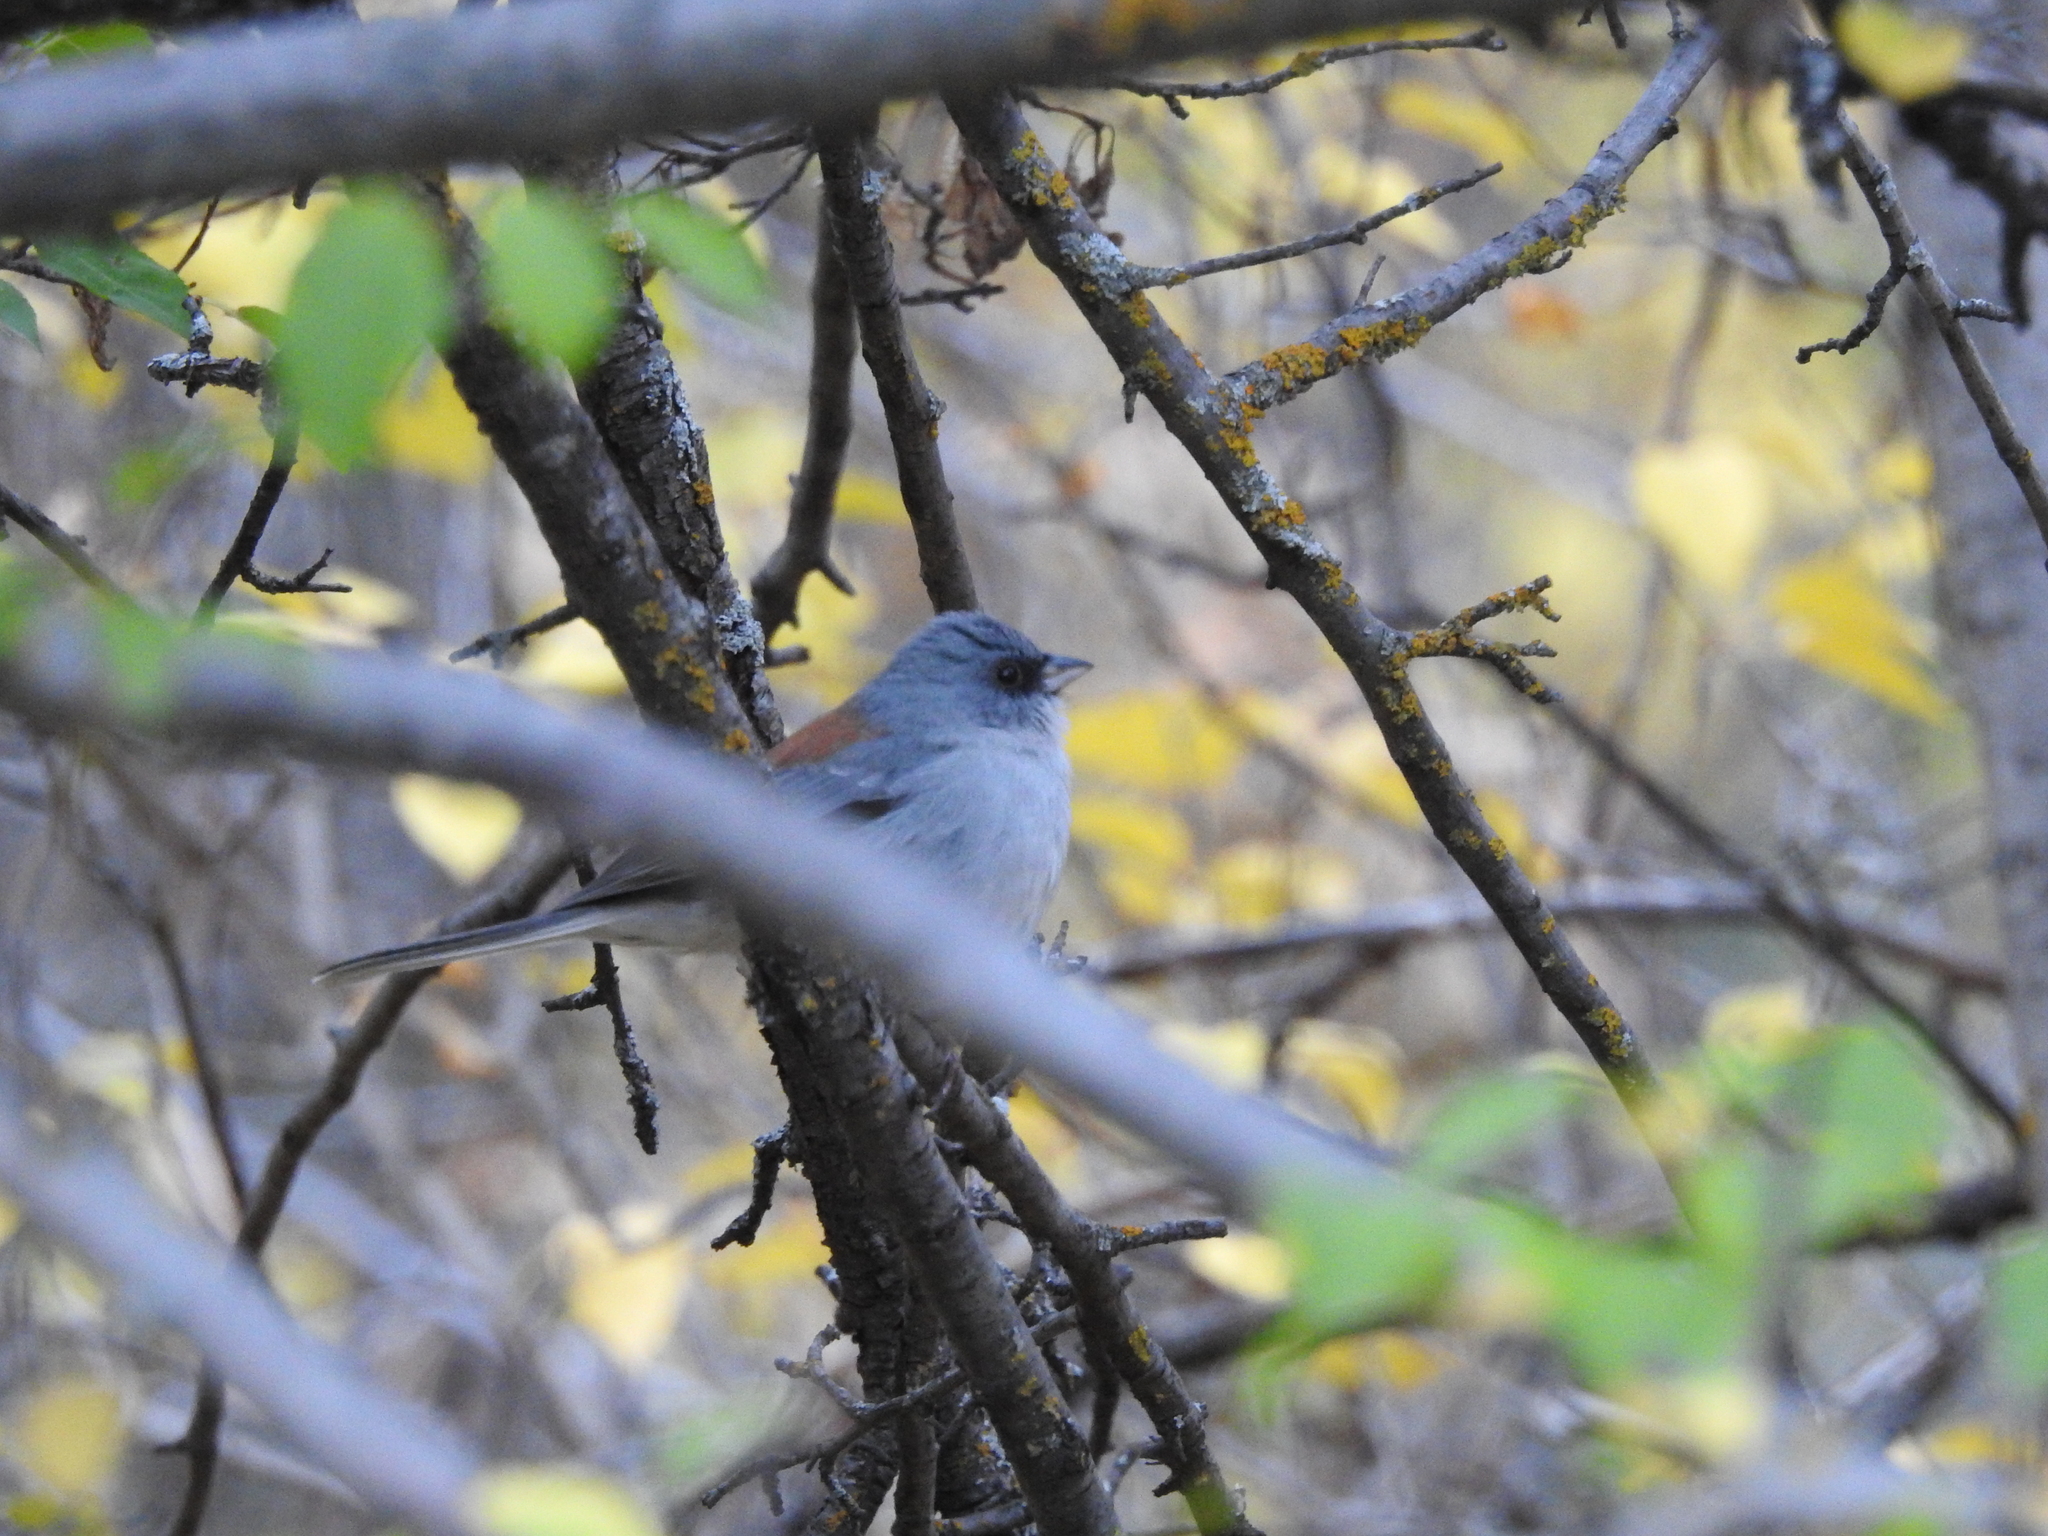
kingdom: Animalia
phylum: Chordata
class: Aves
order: Passeriformes
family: Passerellidae
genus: Junco
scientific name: Junco hyemalis
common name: Dark-eyed junco
